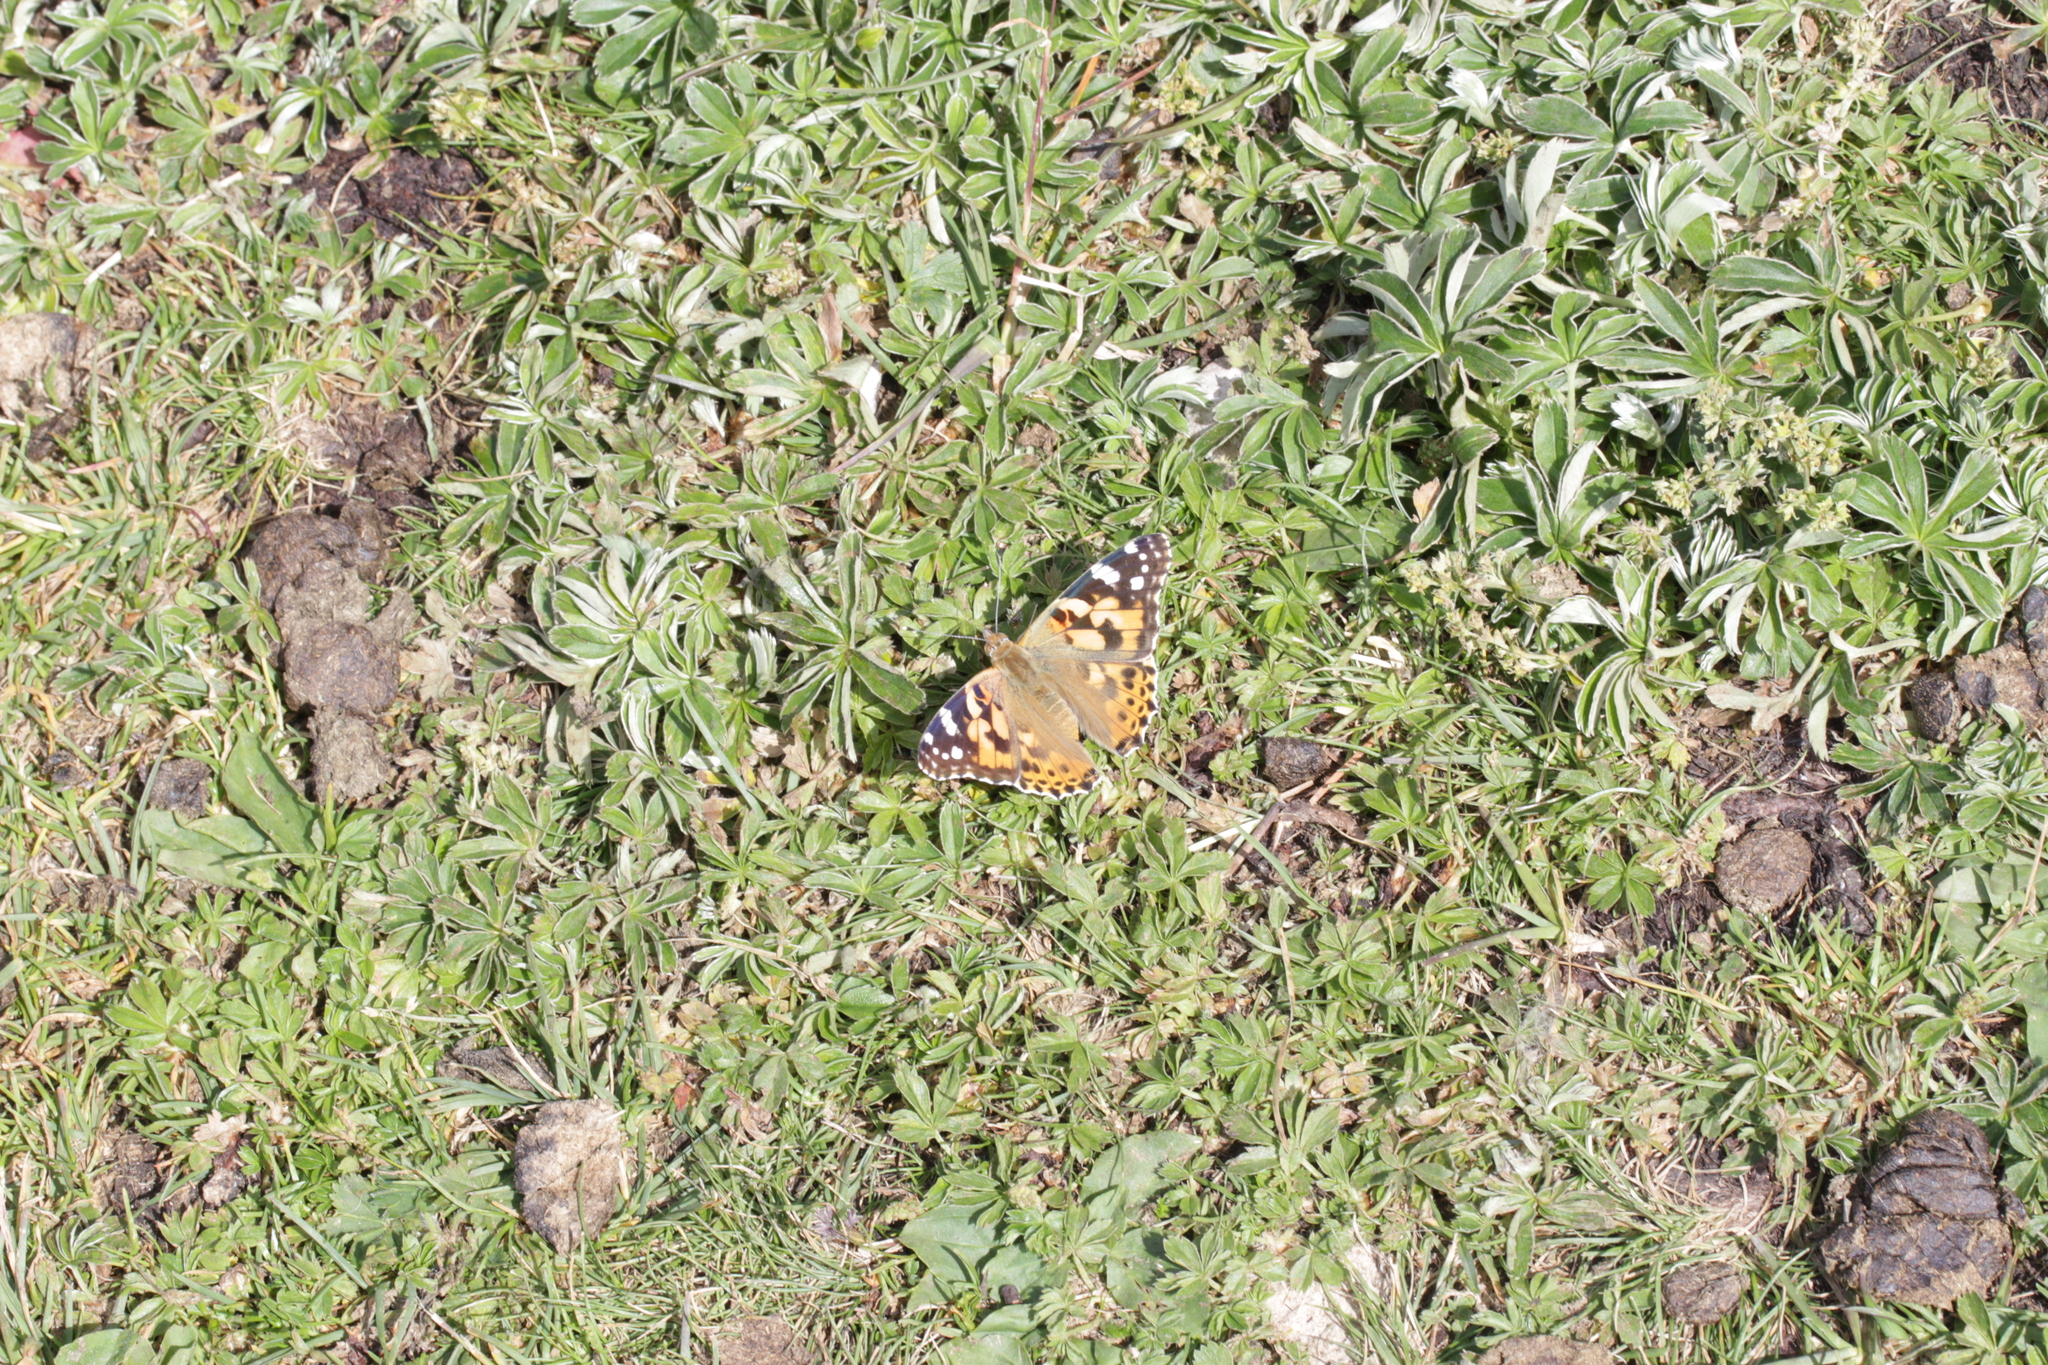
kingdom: Animalia
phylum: Arthropoda
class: Insecta
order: Lepidoptera
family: Nymphalidae
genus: Vanessa
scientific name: Vanessa cardui
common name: Painted lady
